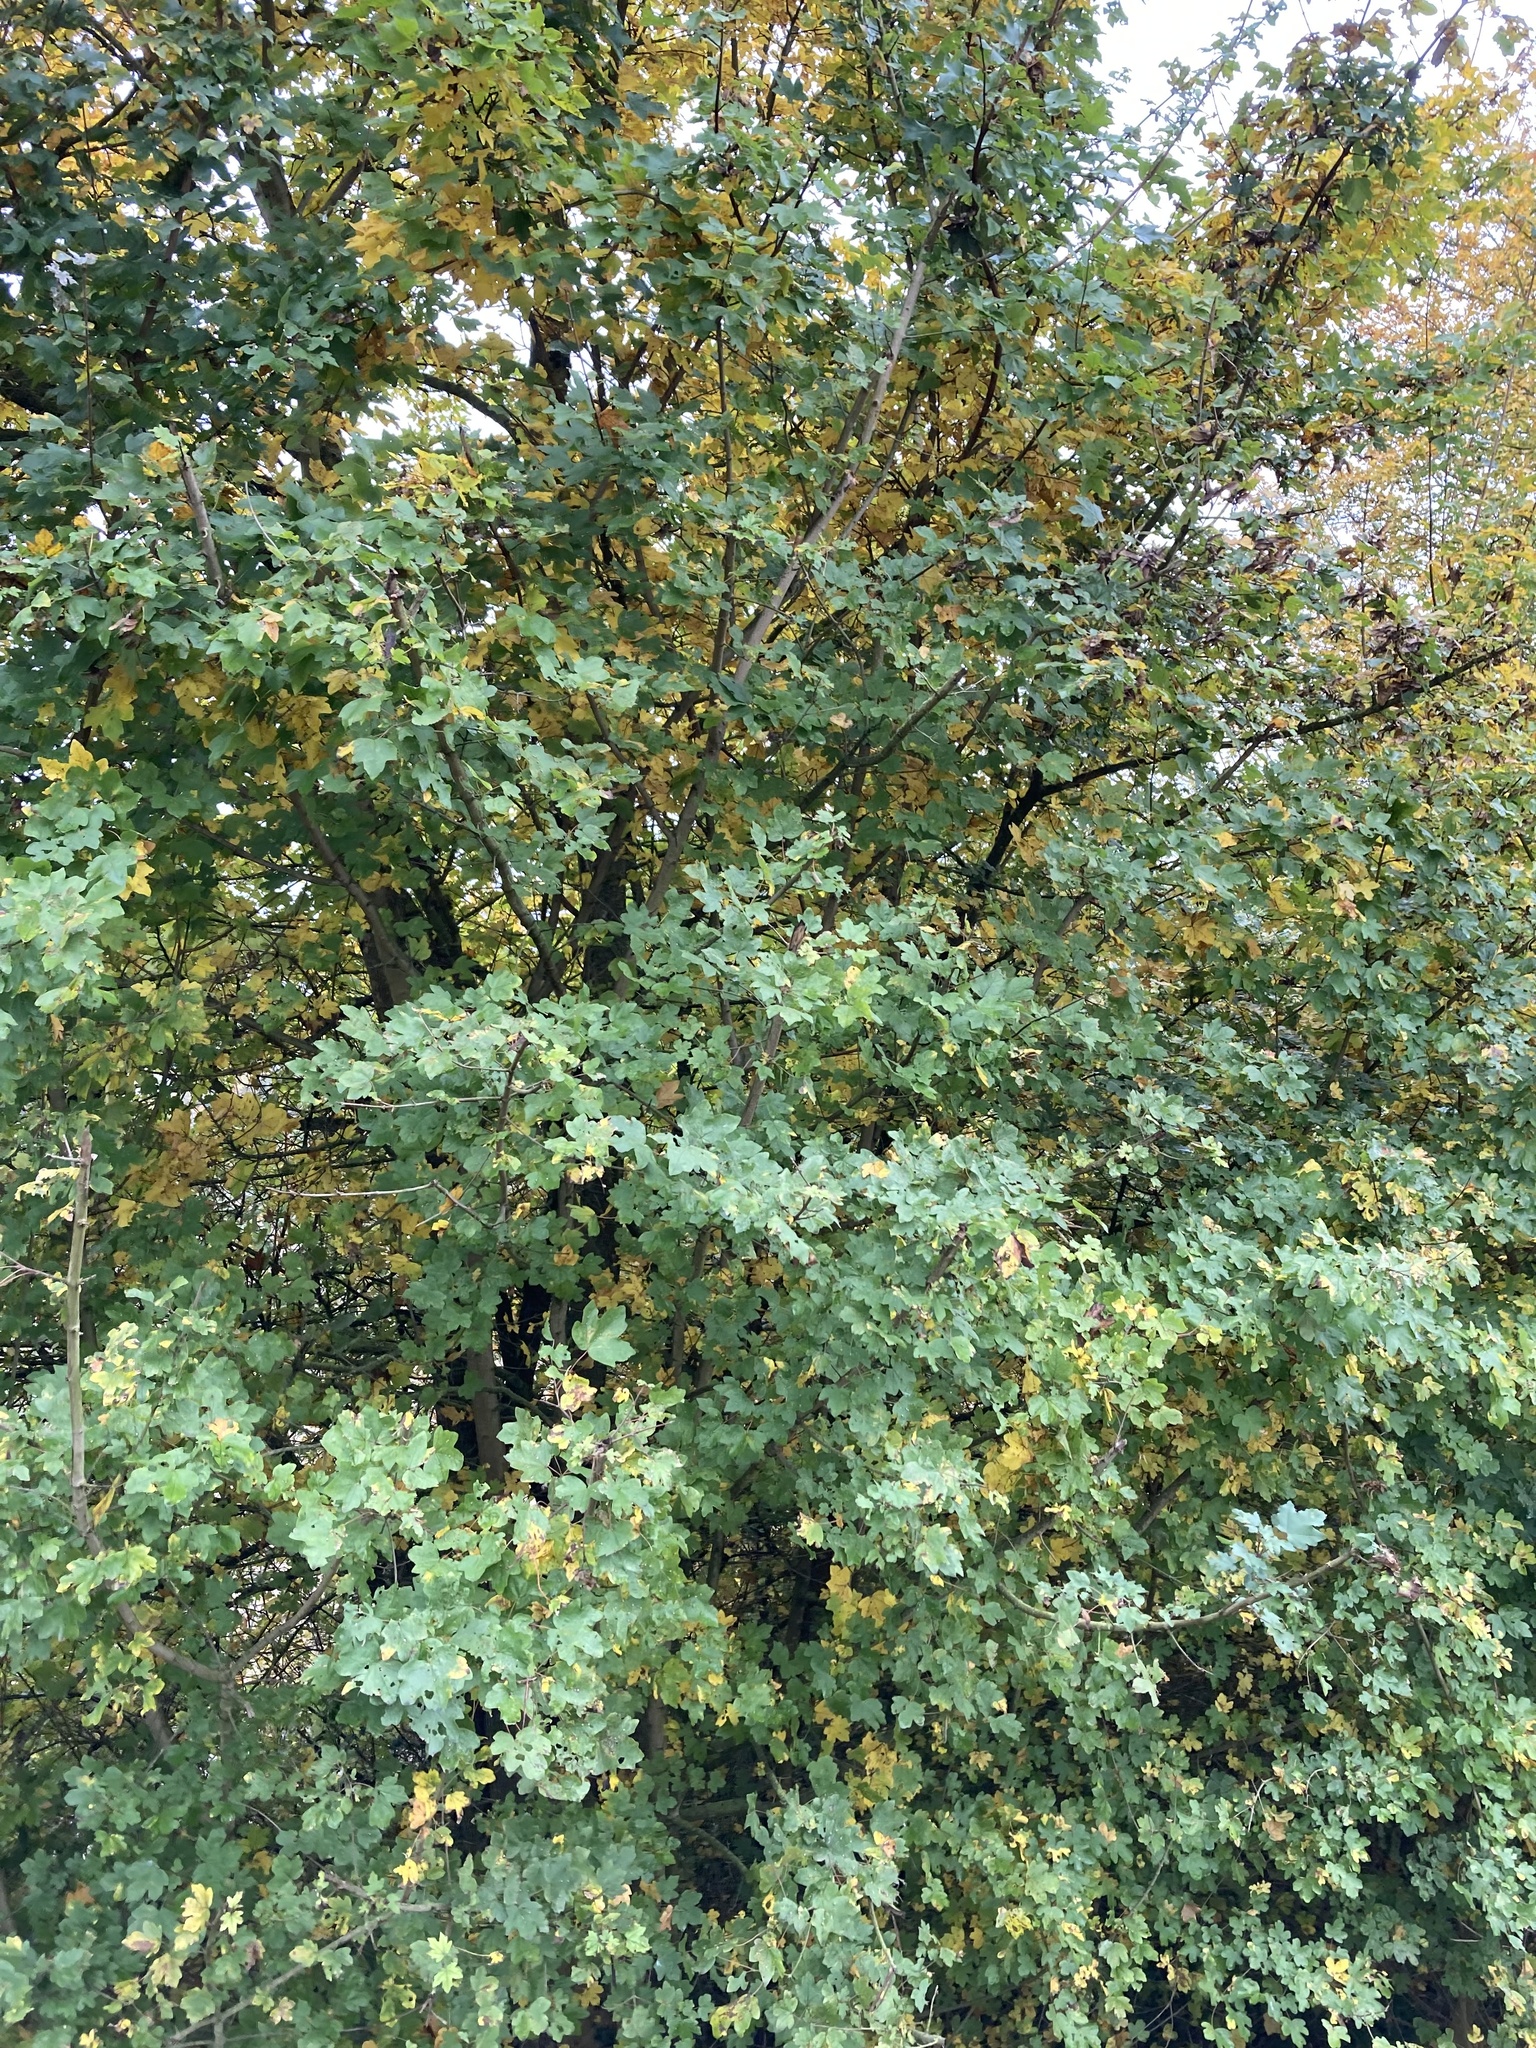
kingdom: Plantae
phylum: Tracheophyta
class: Magnoliopsida
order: Sapindales
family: Sapindaceae
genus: Acer
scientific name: Acer campestre
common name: Field maple
